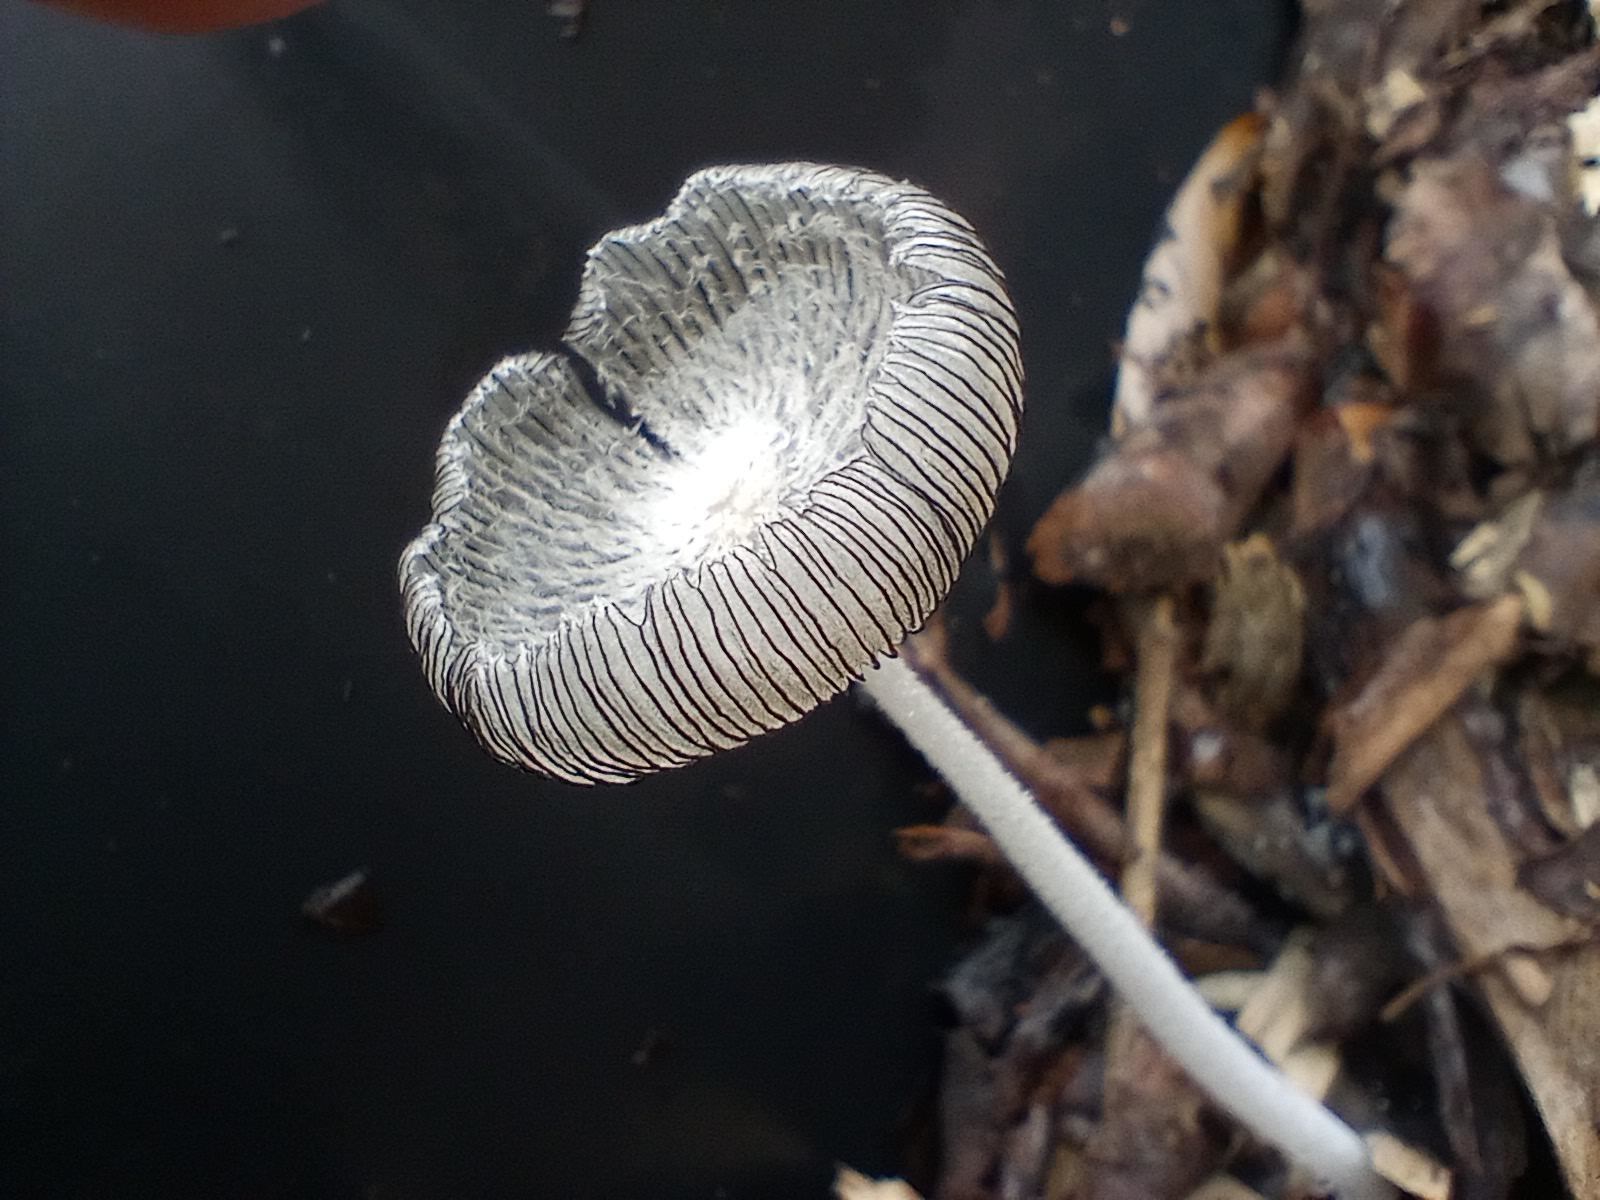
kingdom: Fungi
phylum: Basidiomycota
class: Agaricomycetes
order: Agaricales
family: Psathyrellaceae
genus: Coprinopsis
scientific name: Coprinopsis lagopus
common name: Hare'sfoot inkcap
